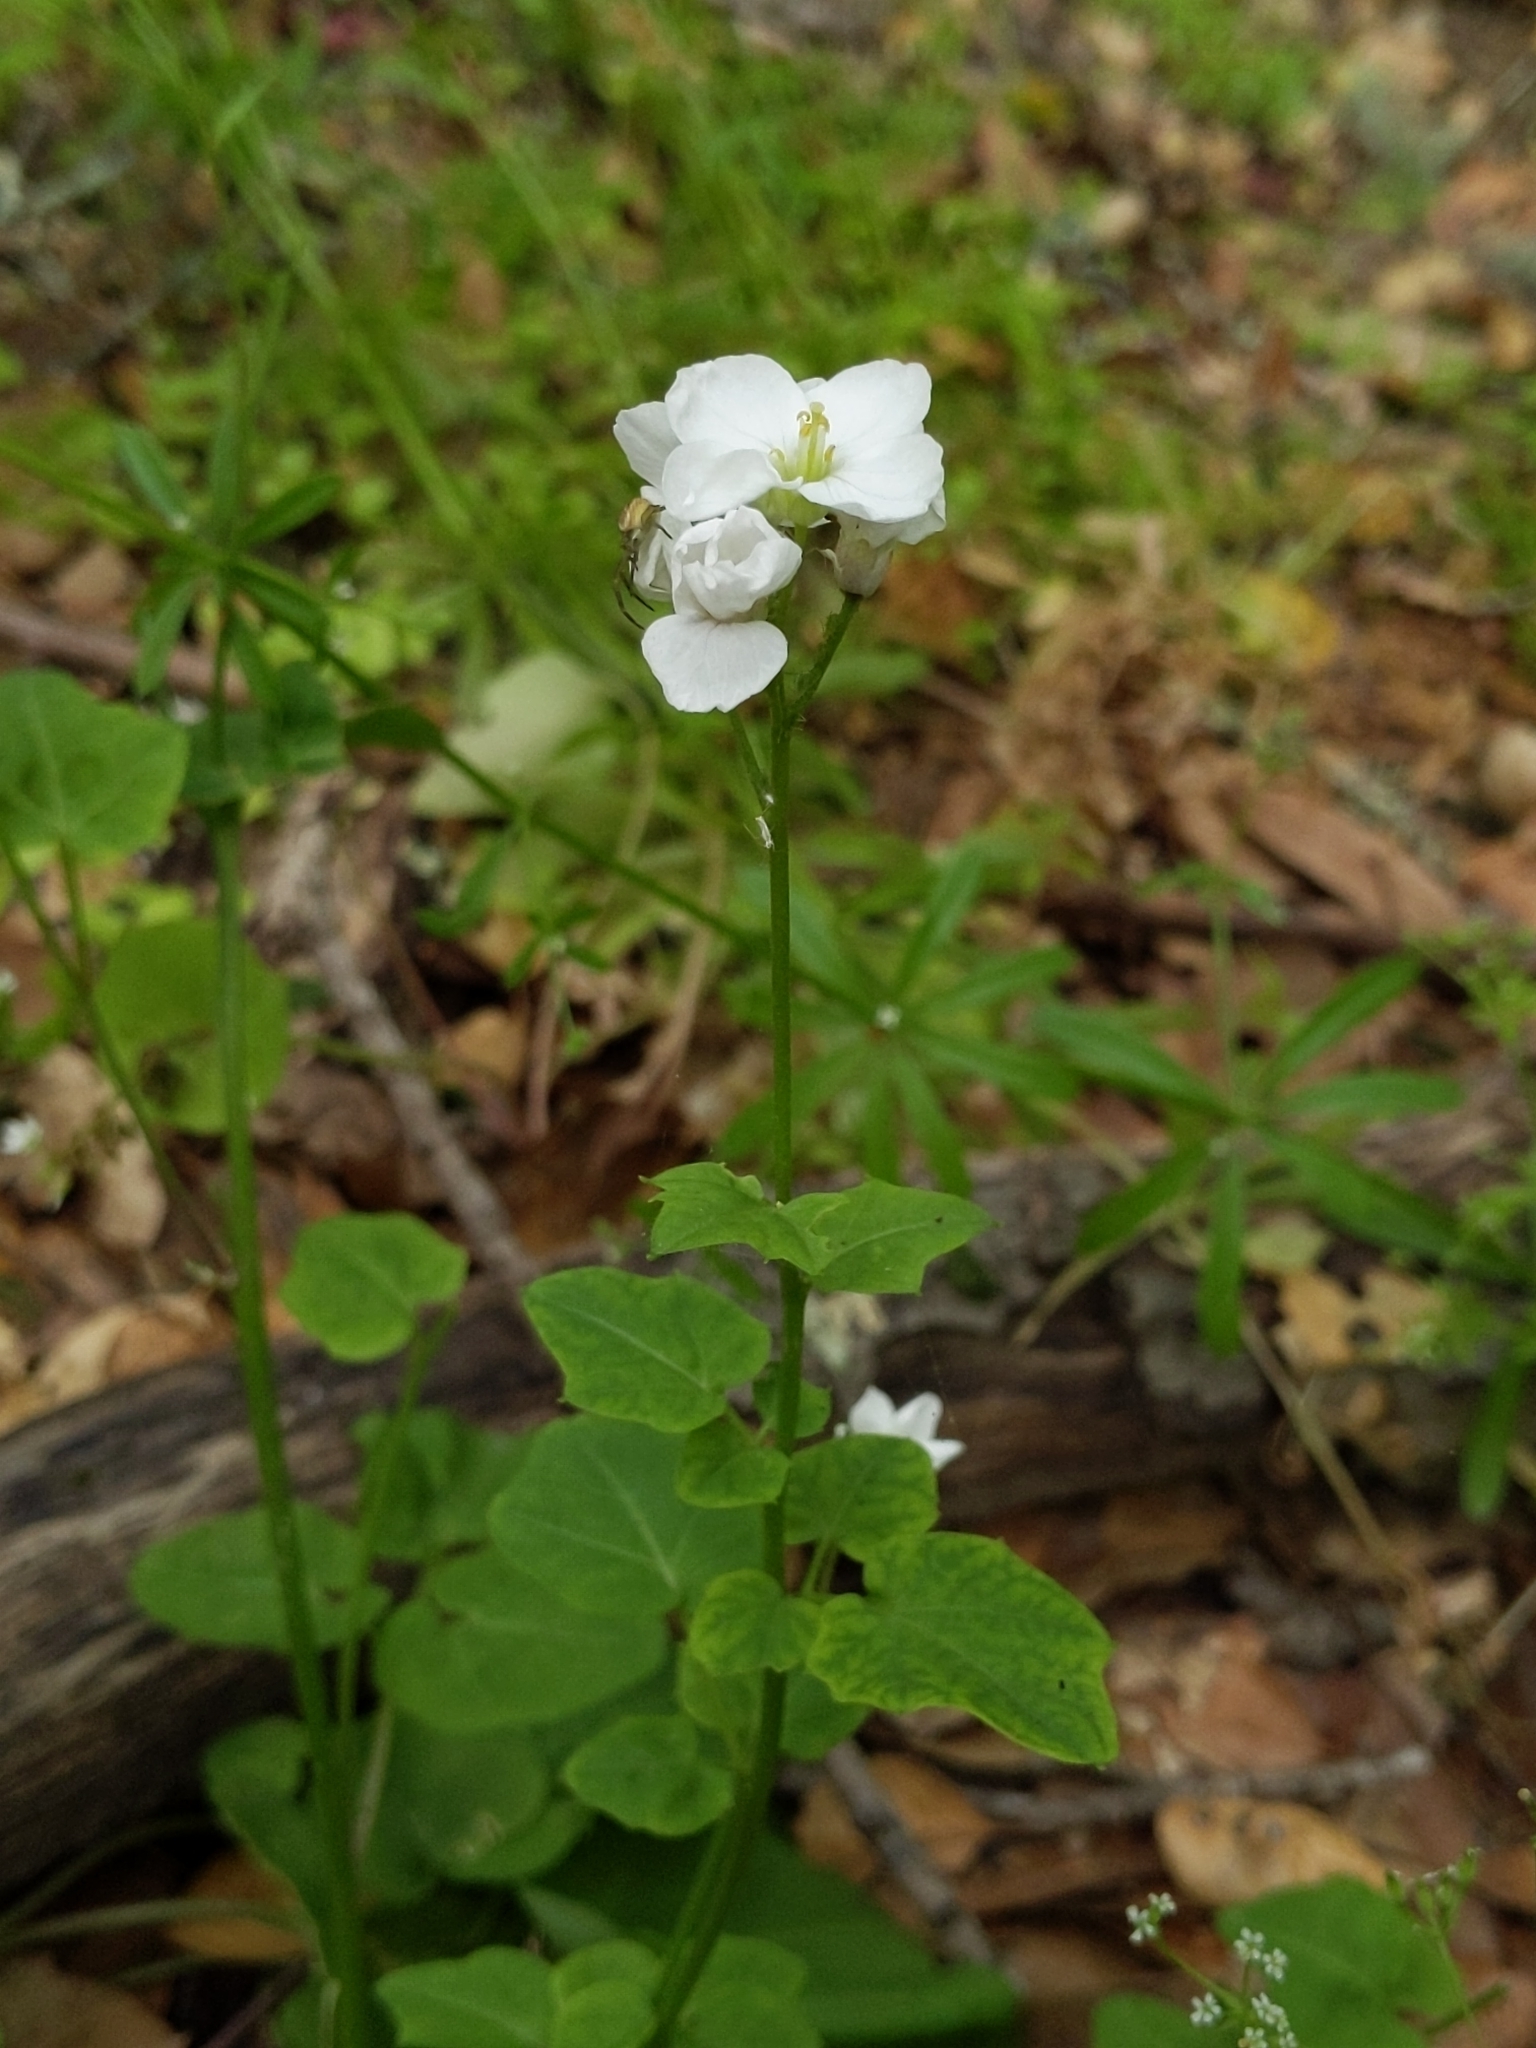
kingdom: Plantae
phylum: Tracheophyta
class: Magnoliopsida
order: Brassicales
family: Brassicaceae
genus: Cardamine
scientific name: Cardamine californica
